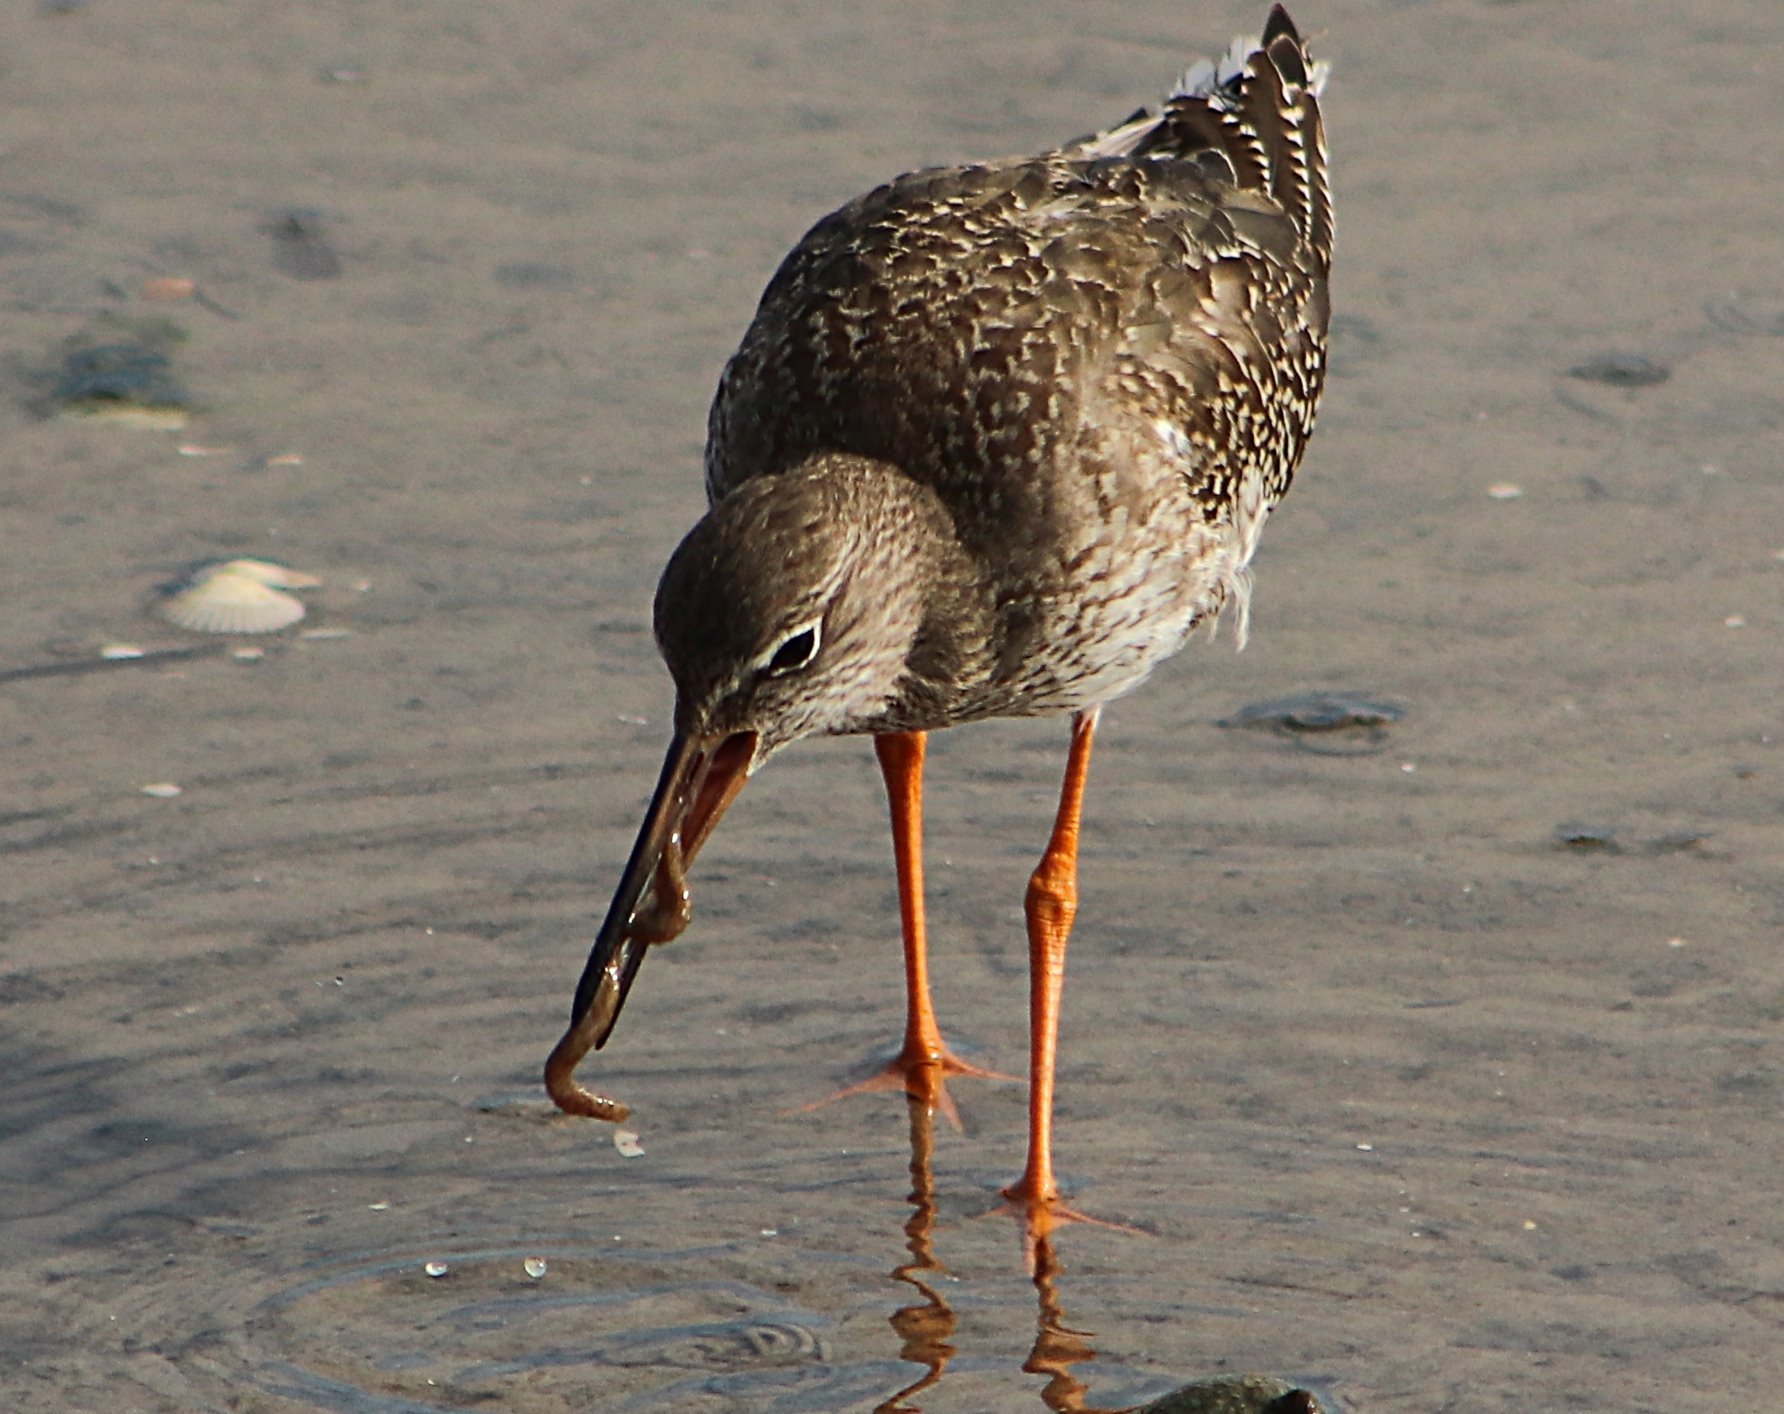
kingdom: Animalia
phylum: Chordata
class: Aves
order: Charadriiformes
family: Scolopacidae
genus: Tringa
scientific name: Tringa totanus
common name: Common redshank
